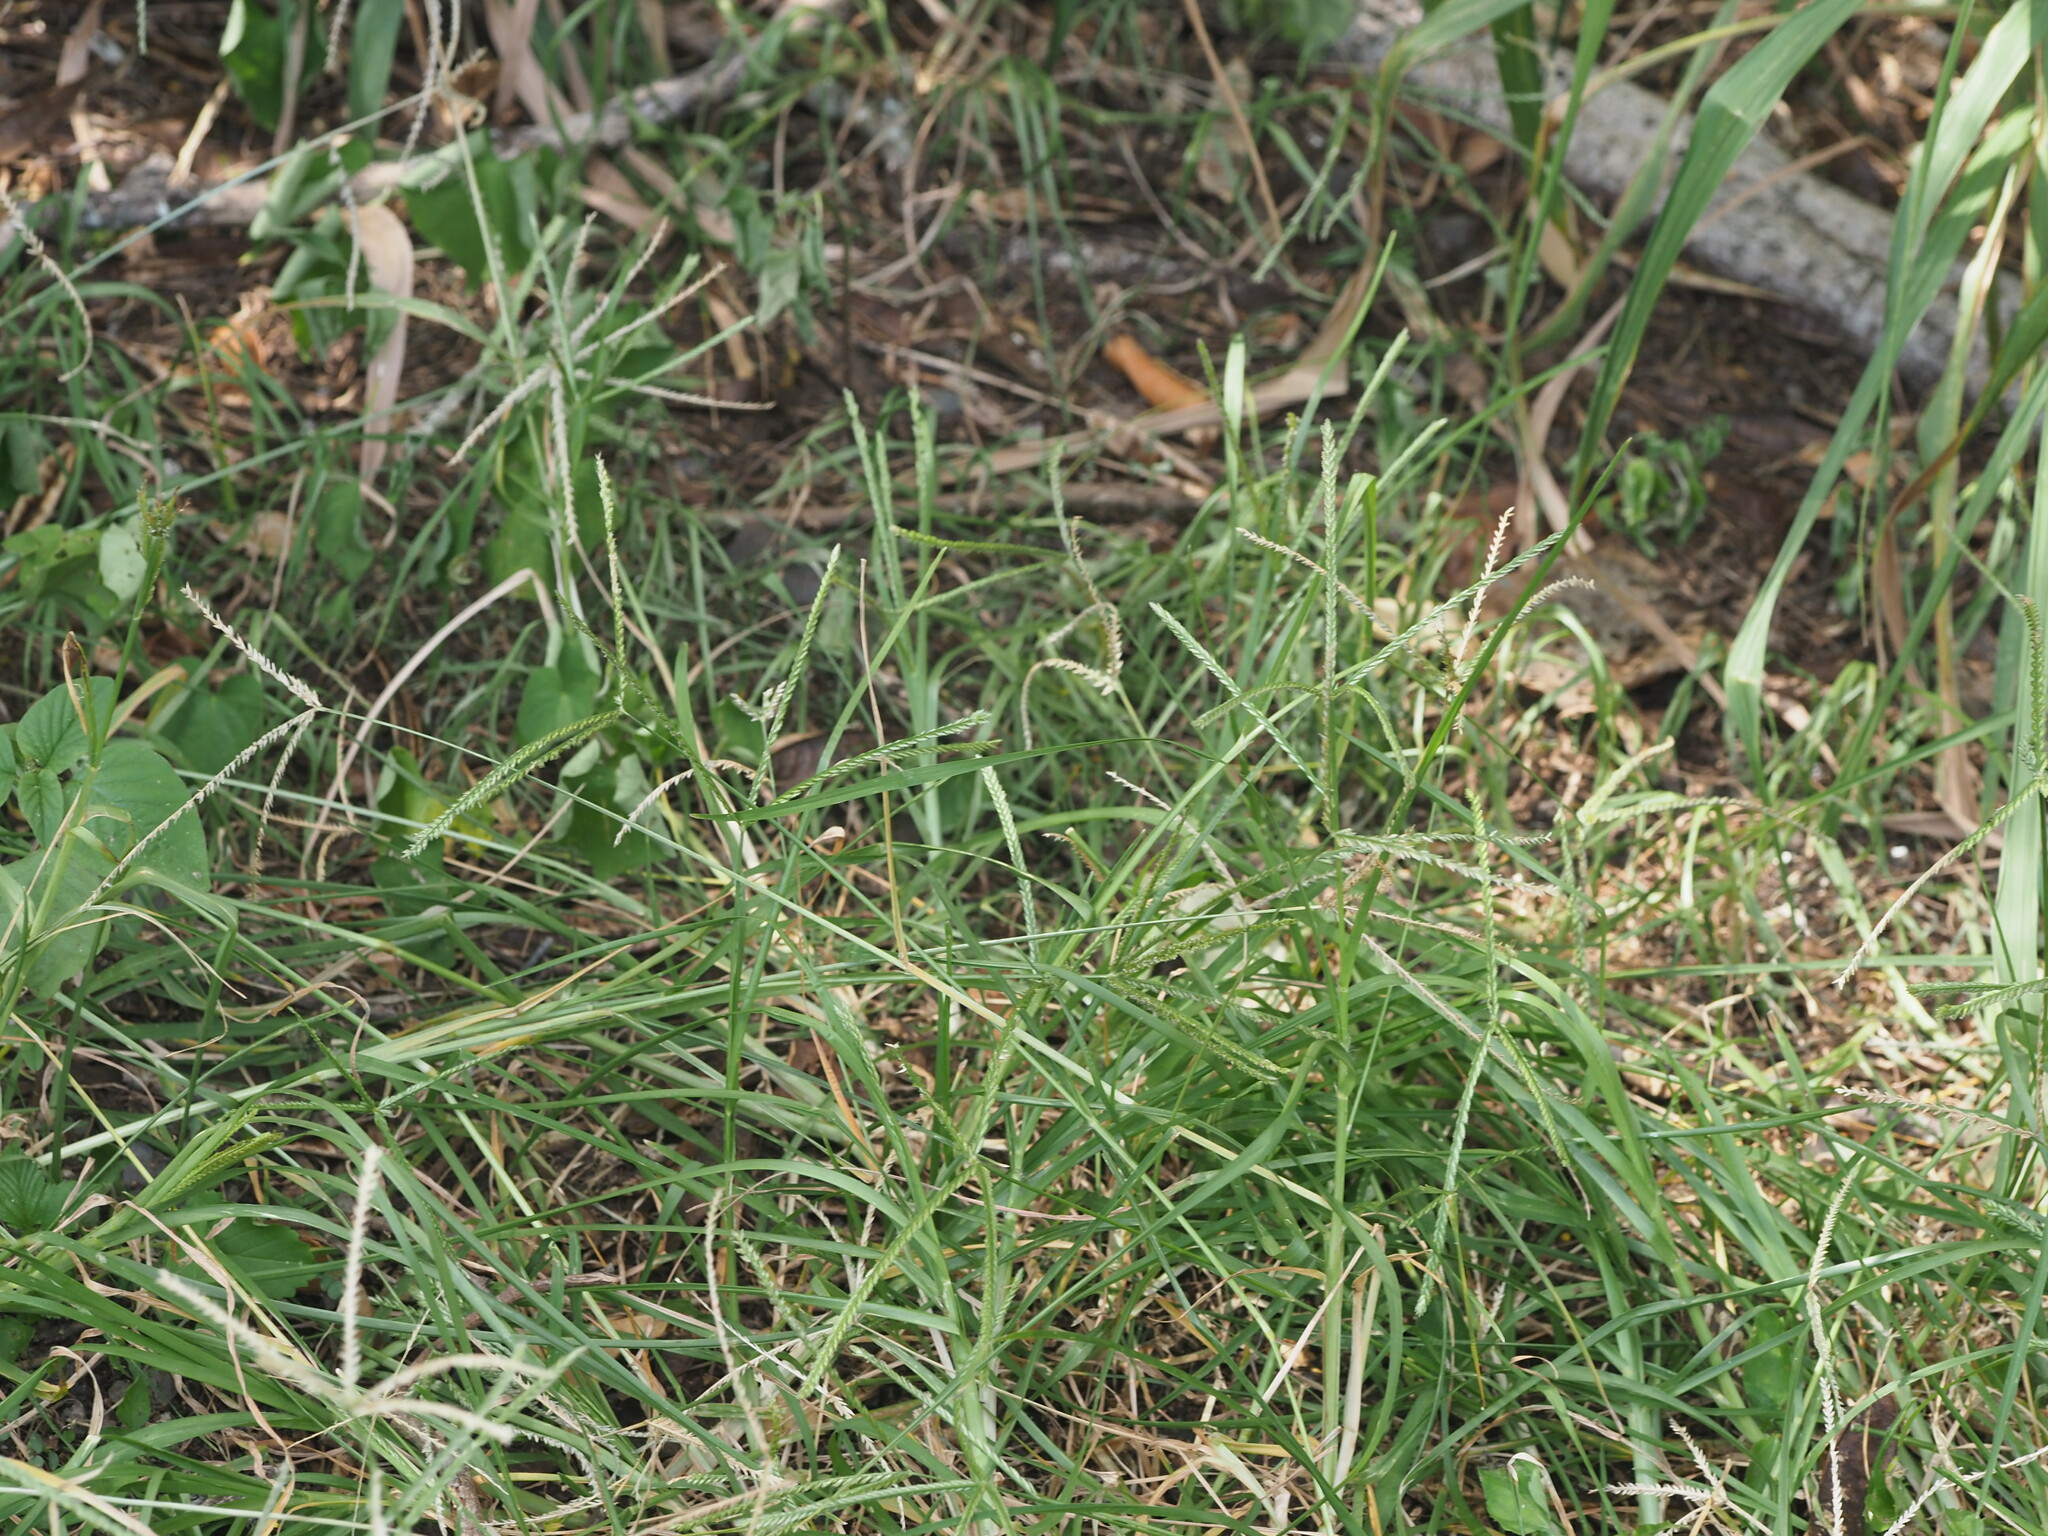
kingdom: Plantae
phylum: Tracheophyta
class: Liliopsida
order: Poales
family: Poaceae
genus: Eleusine
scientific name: Eleusine indica
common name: Yard-grass
